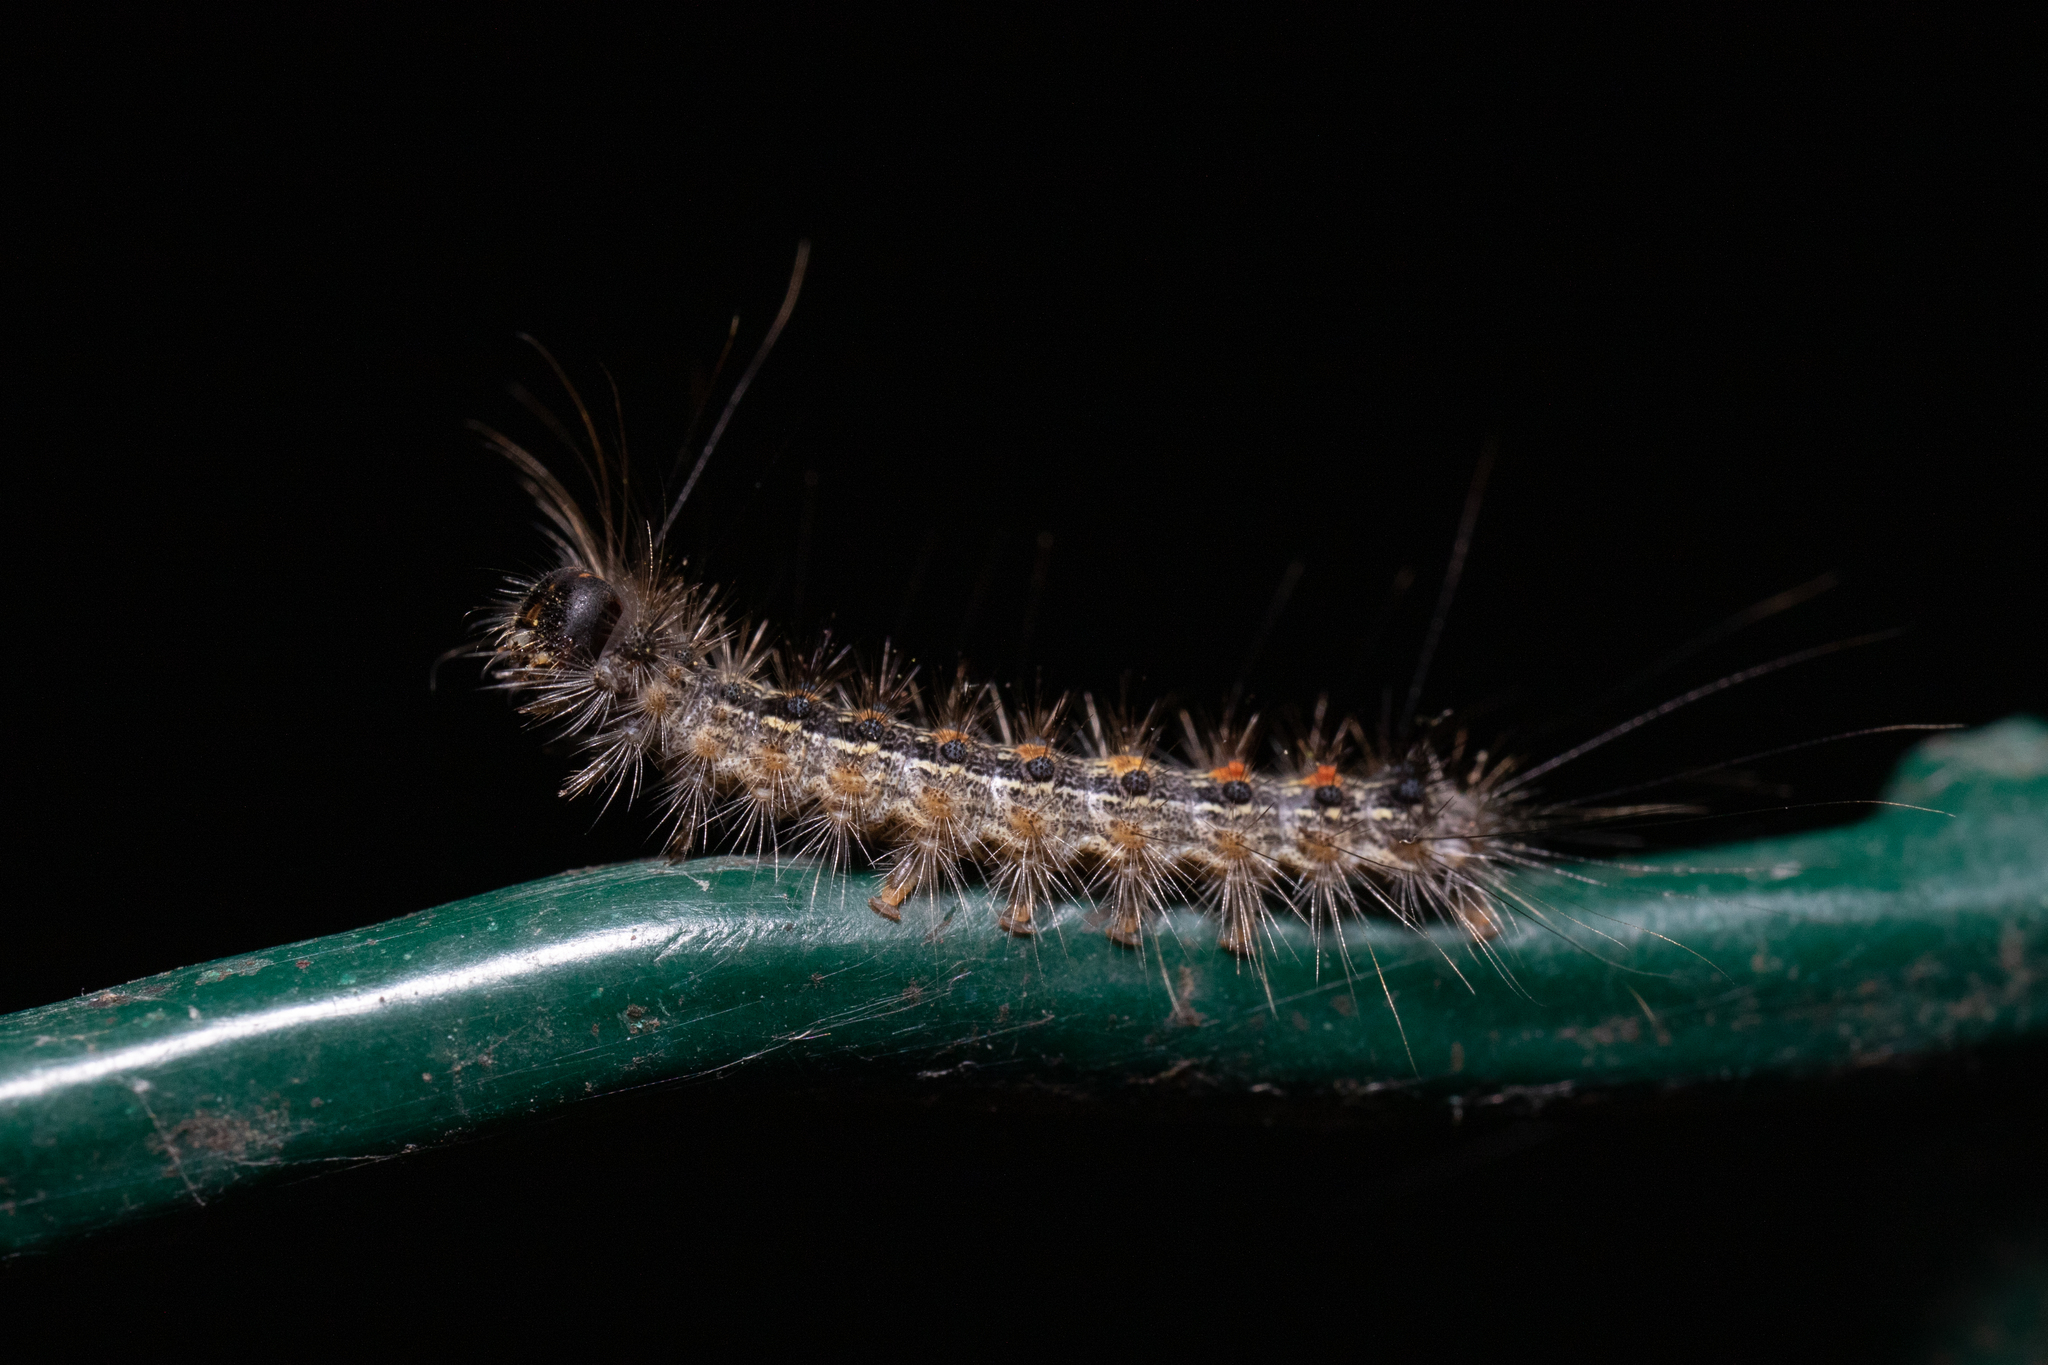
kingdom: Animalia
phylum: Arthropoda
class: Insecta
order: Lepidoptera
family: Erebidae
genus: Lymantria
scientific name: Lymantria dispar
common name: Gypsy moth
